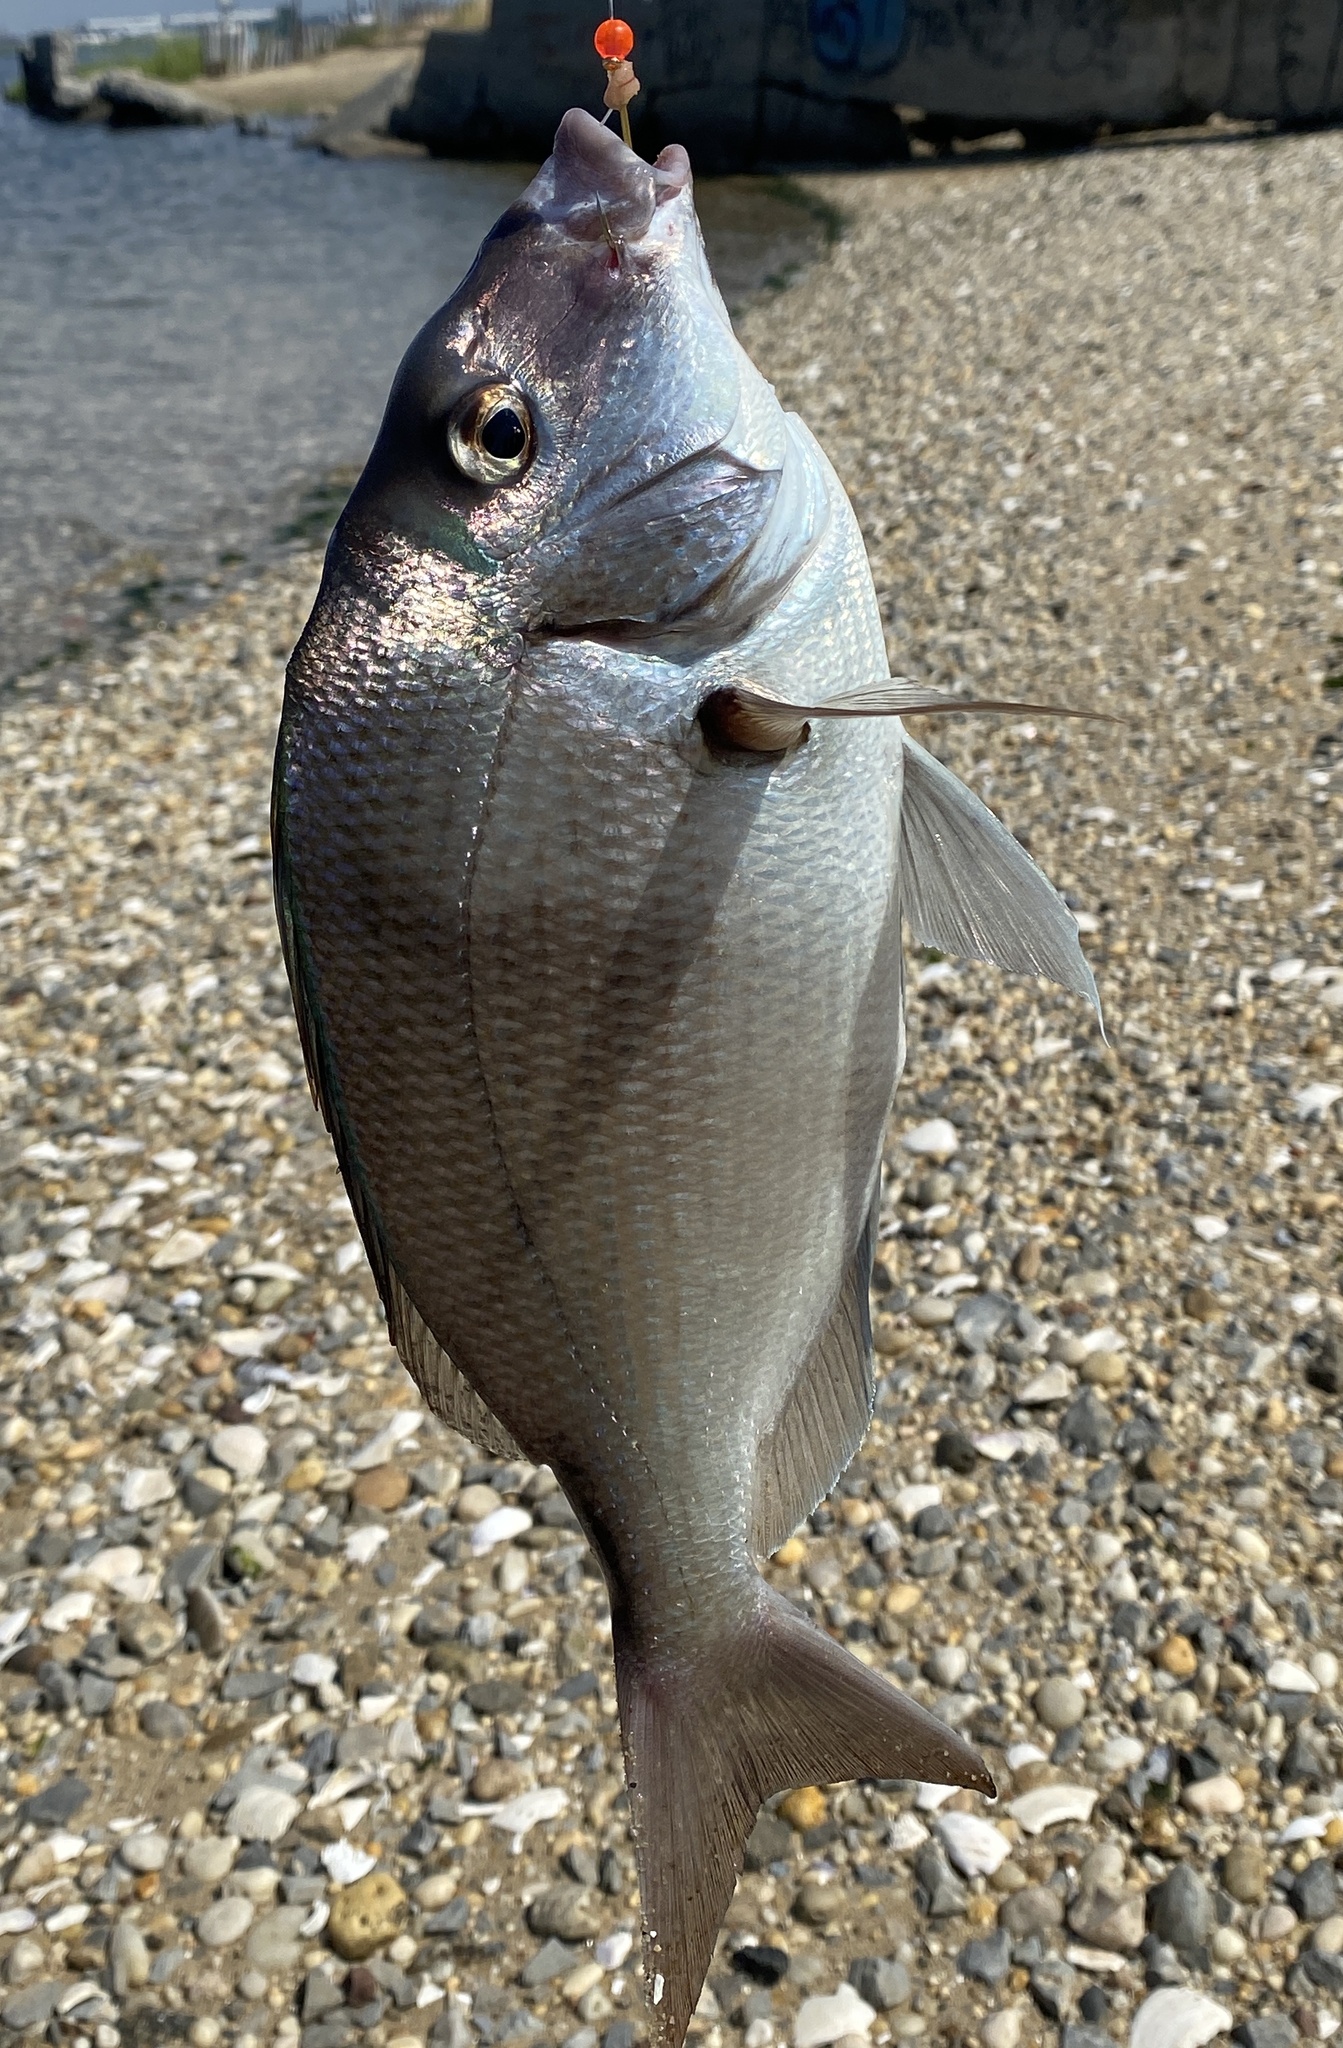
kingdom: Animalia
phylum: Chordata
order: Perciformes
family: Sparidae
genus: Stenotomus
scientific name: Stenotomus chrysops
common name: Scup
